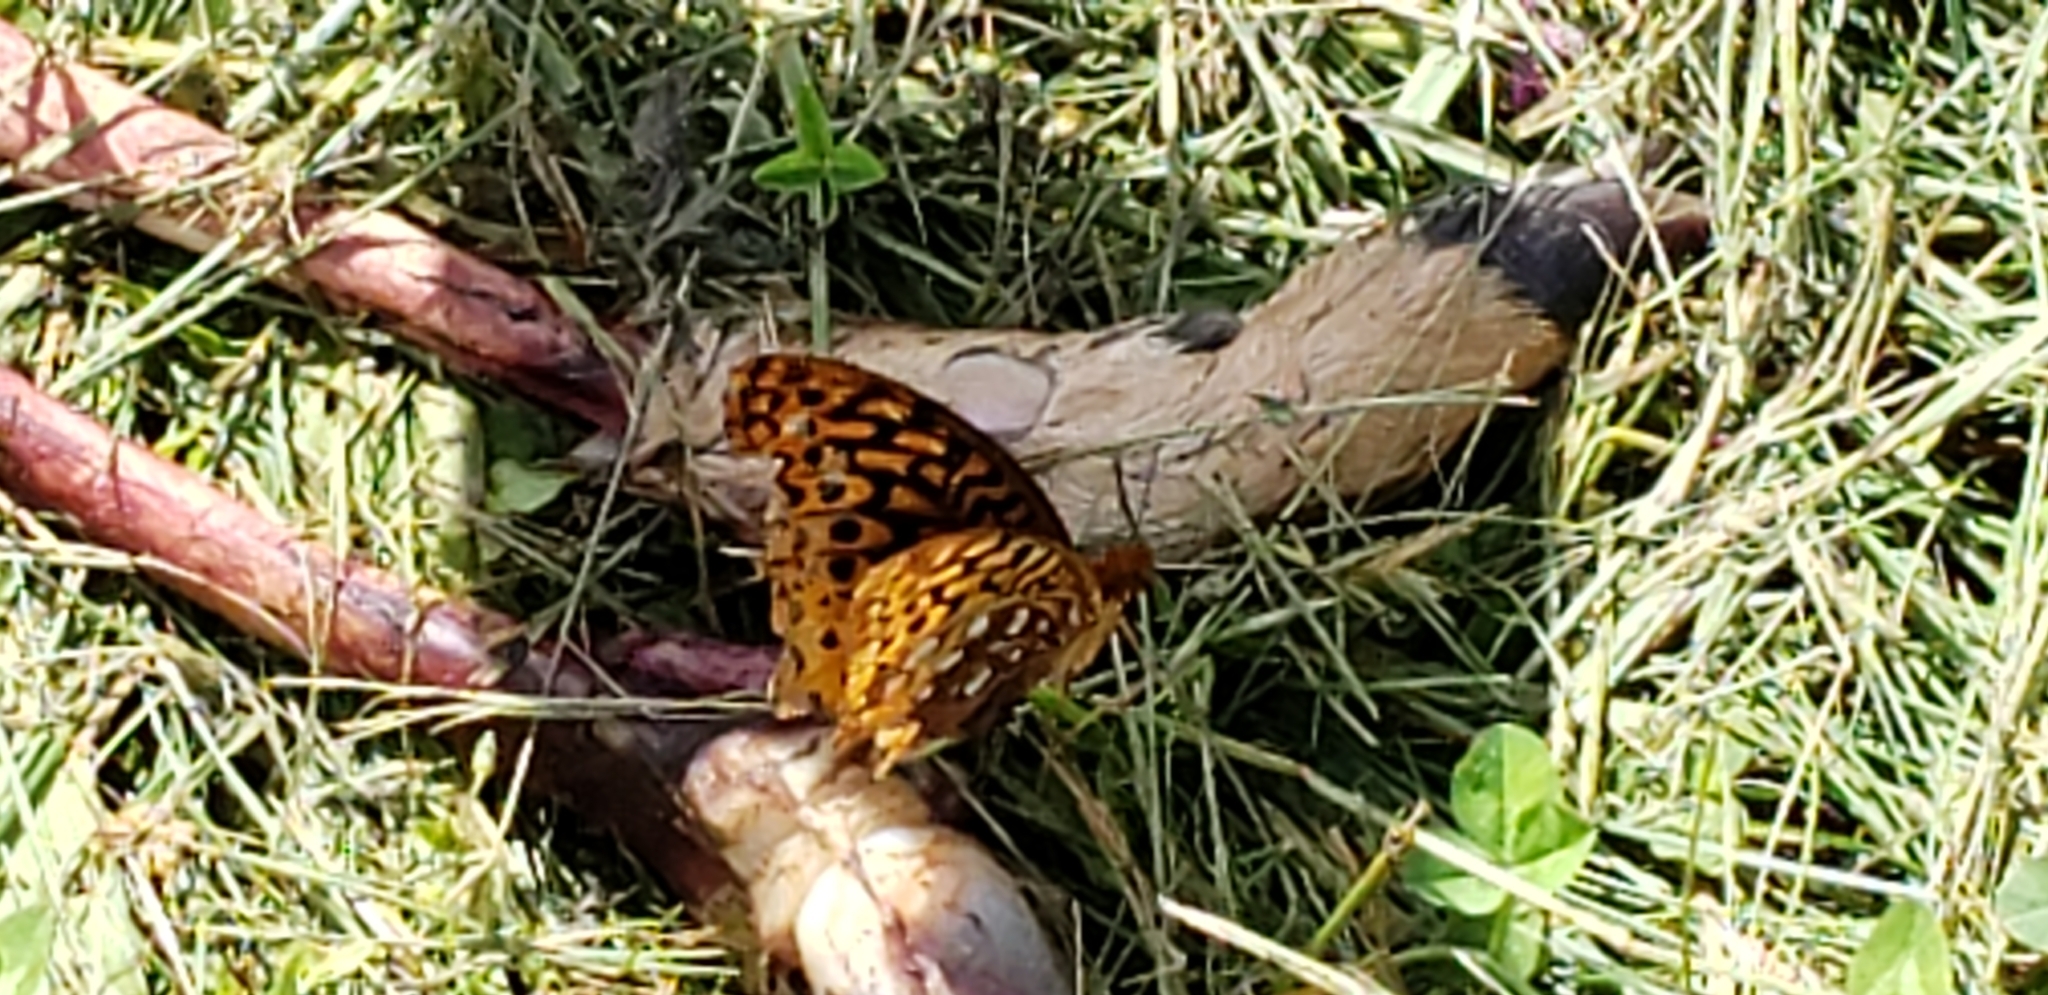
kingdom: Animalia
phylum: Arthropoda
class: Insecta
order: Lepidoptera
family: Nymphalidae
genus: Speyeria
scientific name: Speyeria cybele
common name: Great spangled fritillary
